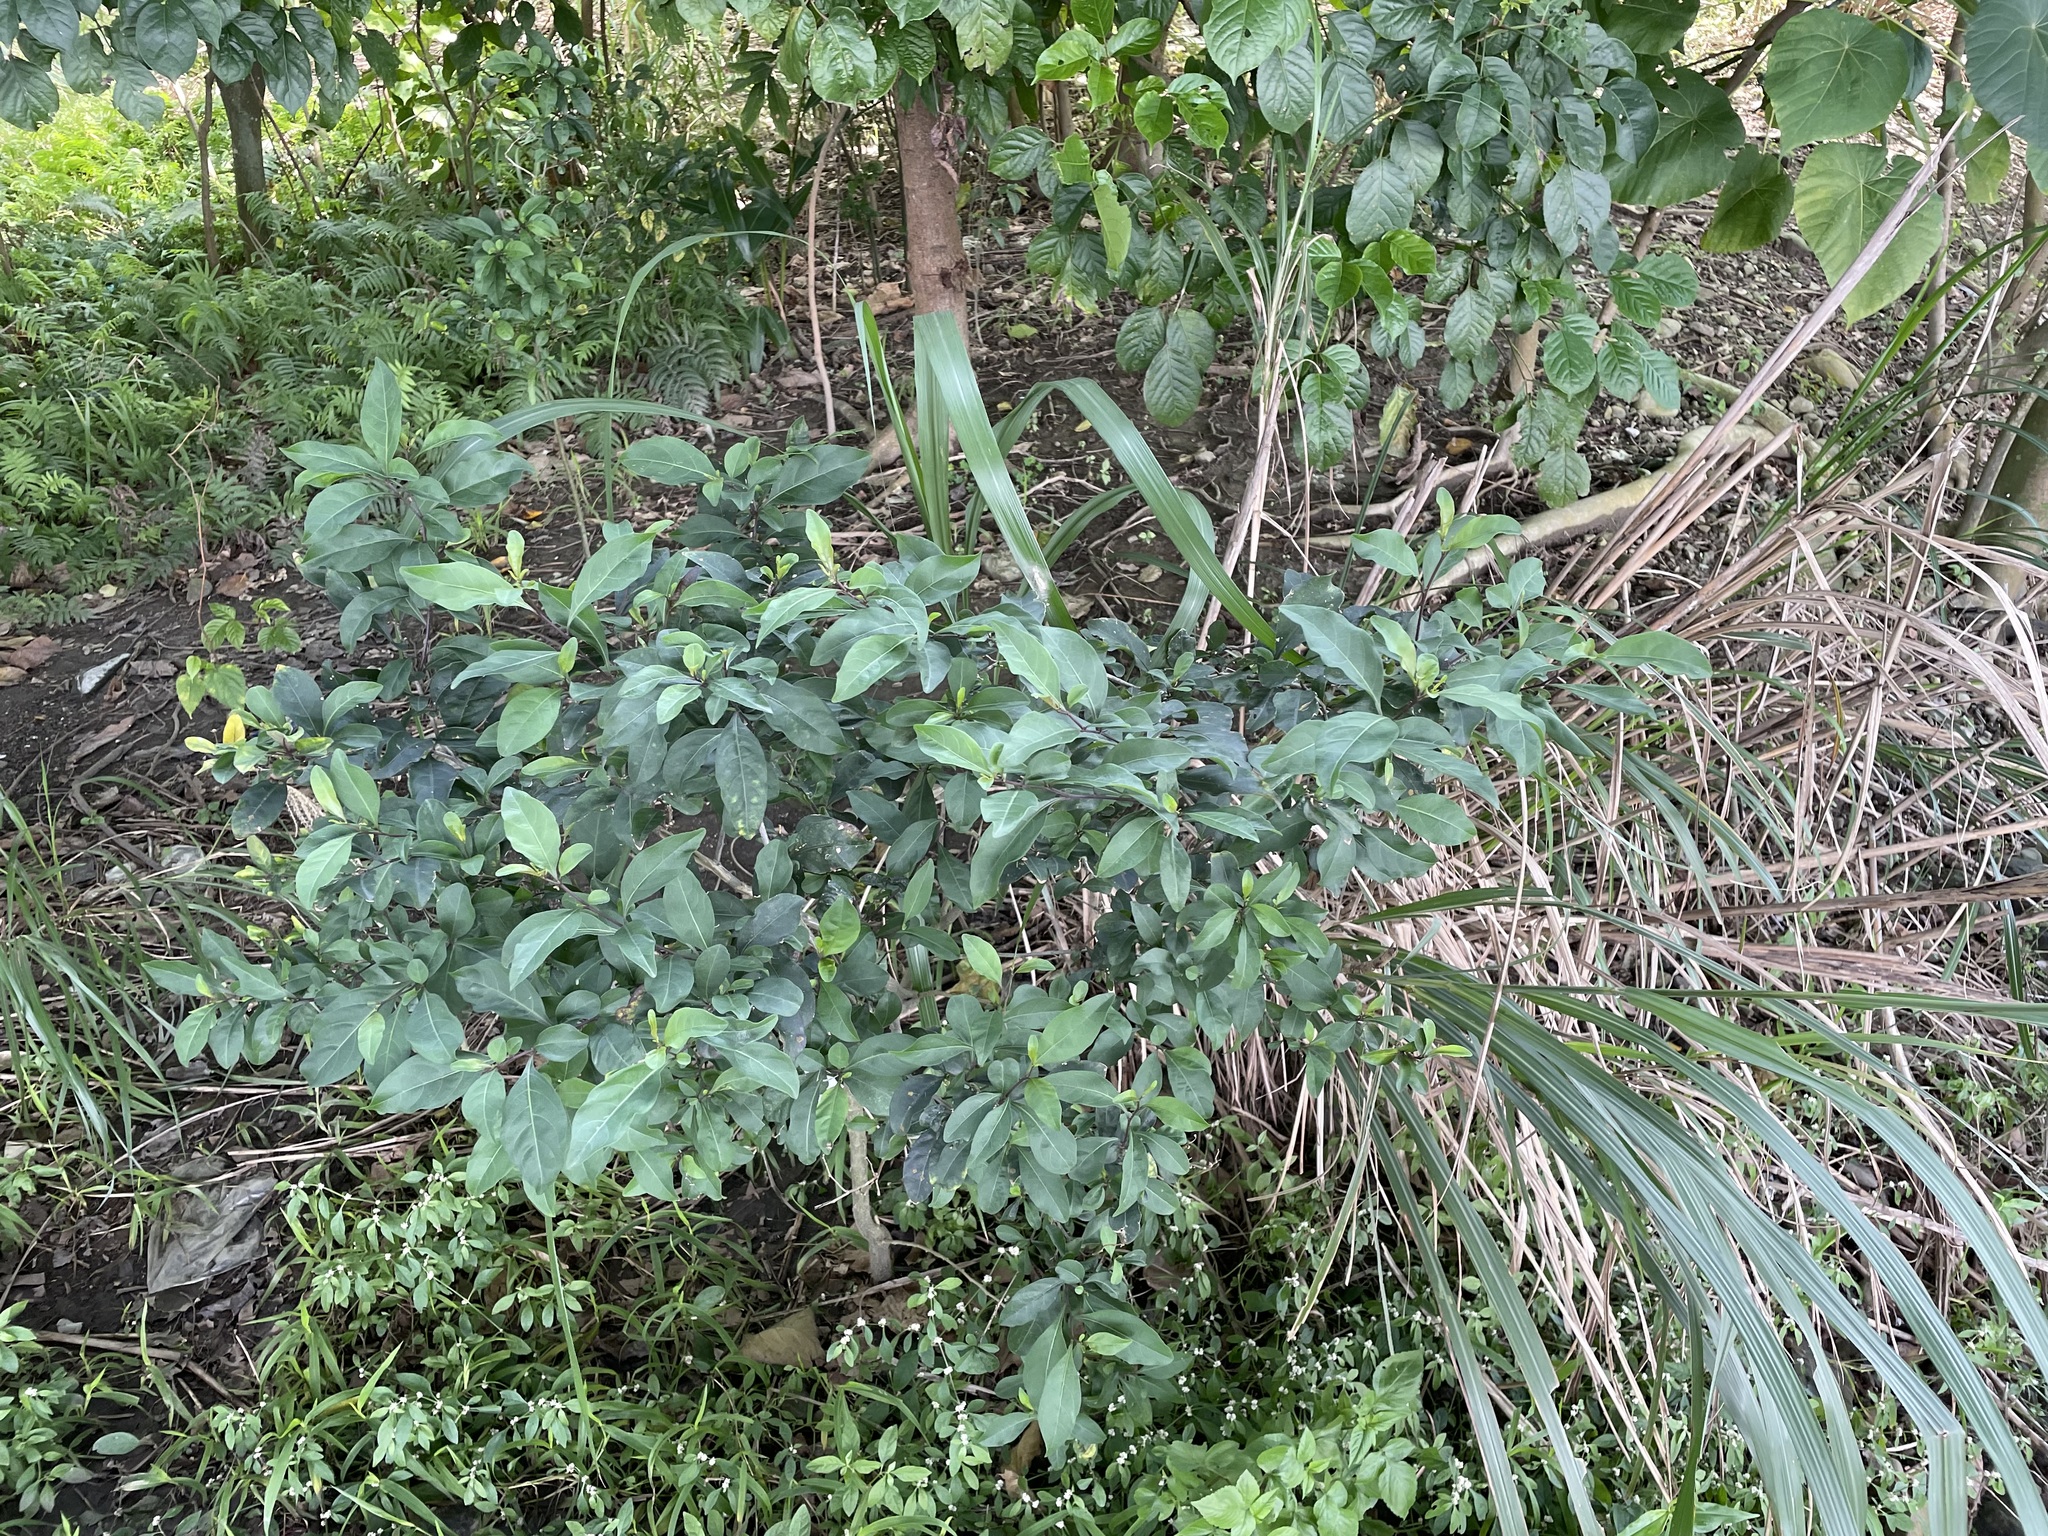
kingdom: Plantae
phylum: Tracheophyta
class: Magnoliopsida
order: Solanales
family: Solanaceae
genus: Solanum
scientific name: Solanum diphyllum
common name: Twoleaf nightshade
